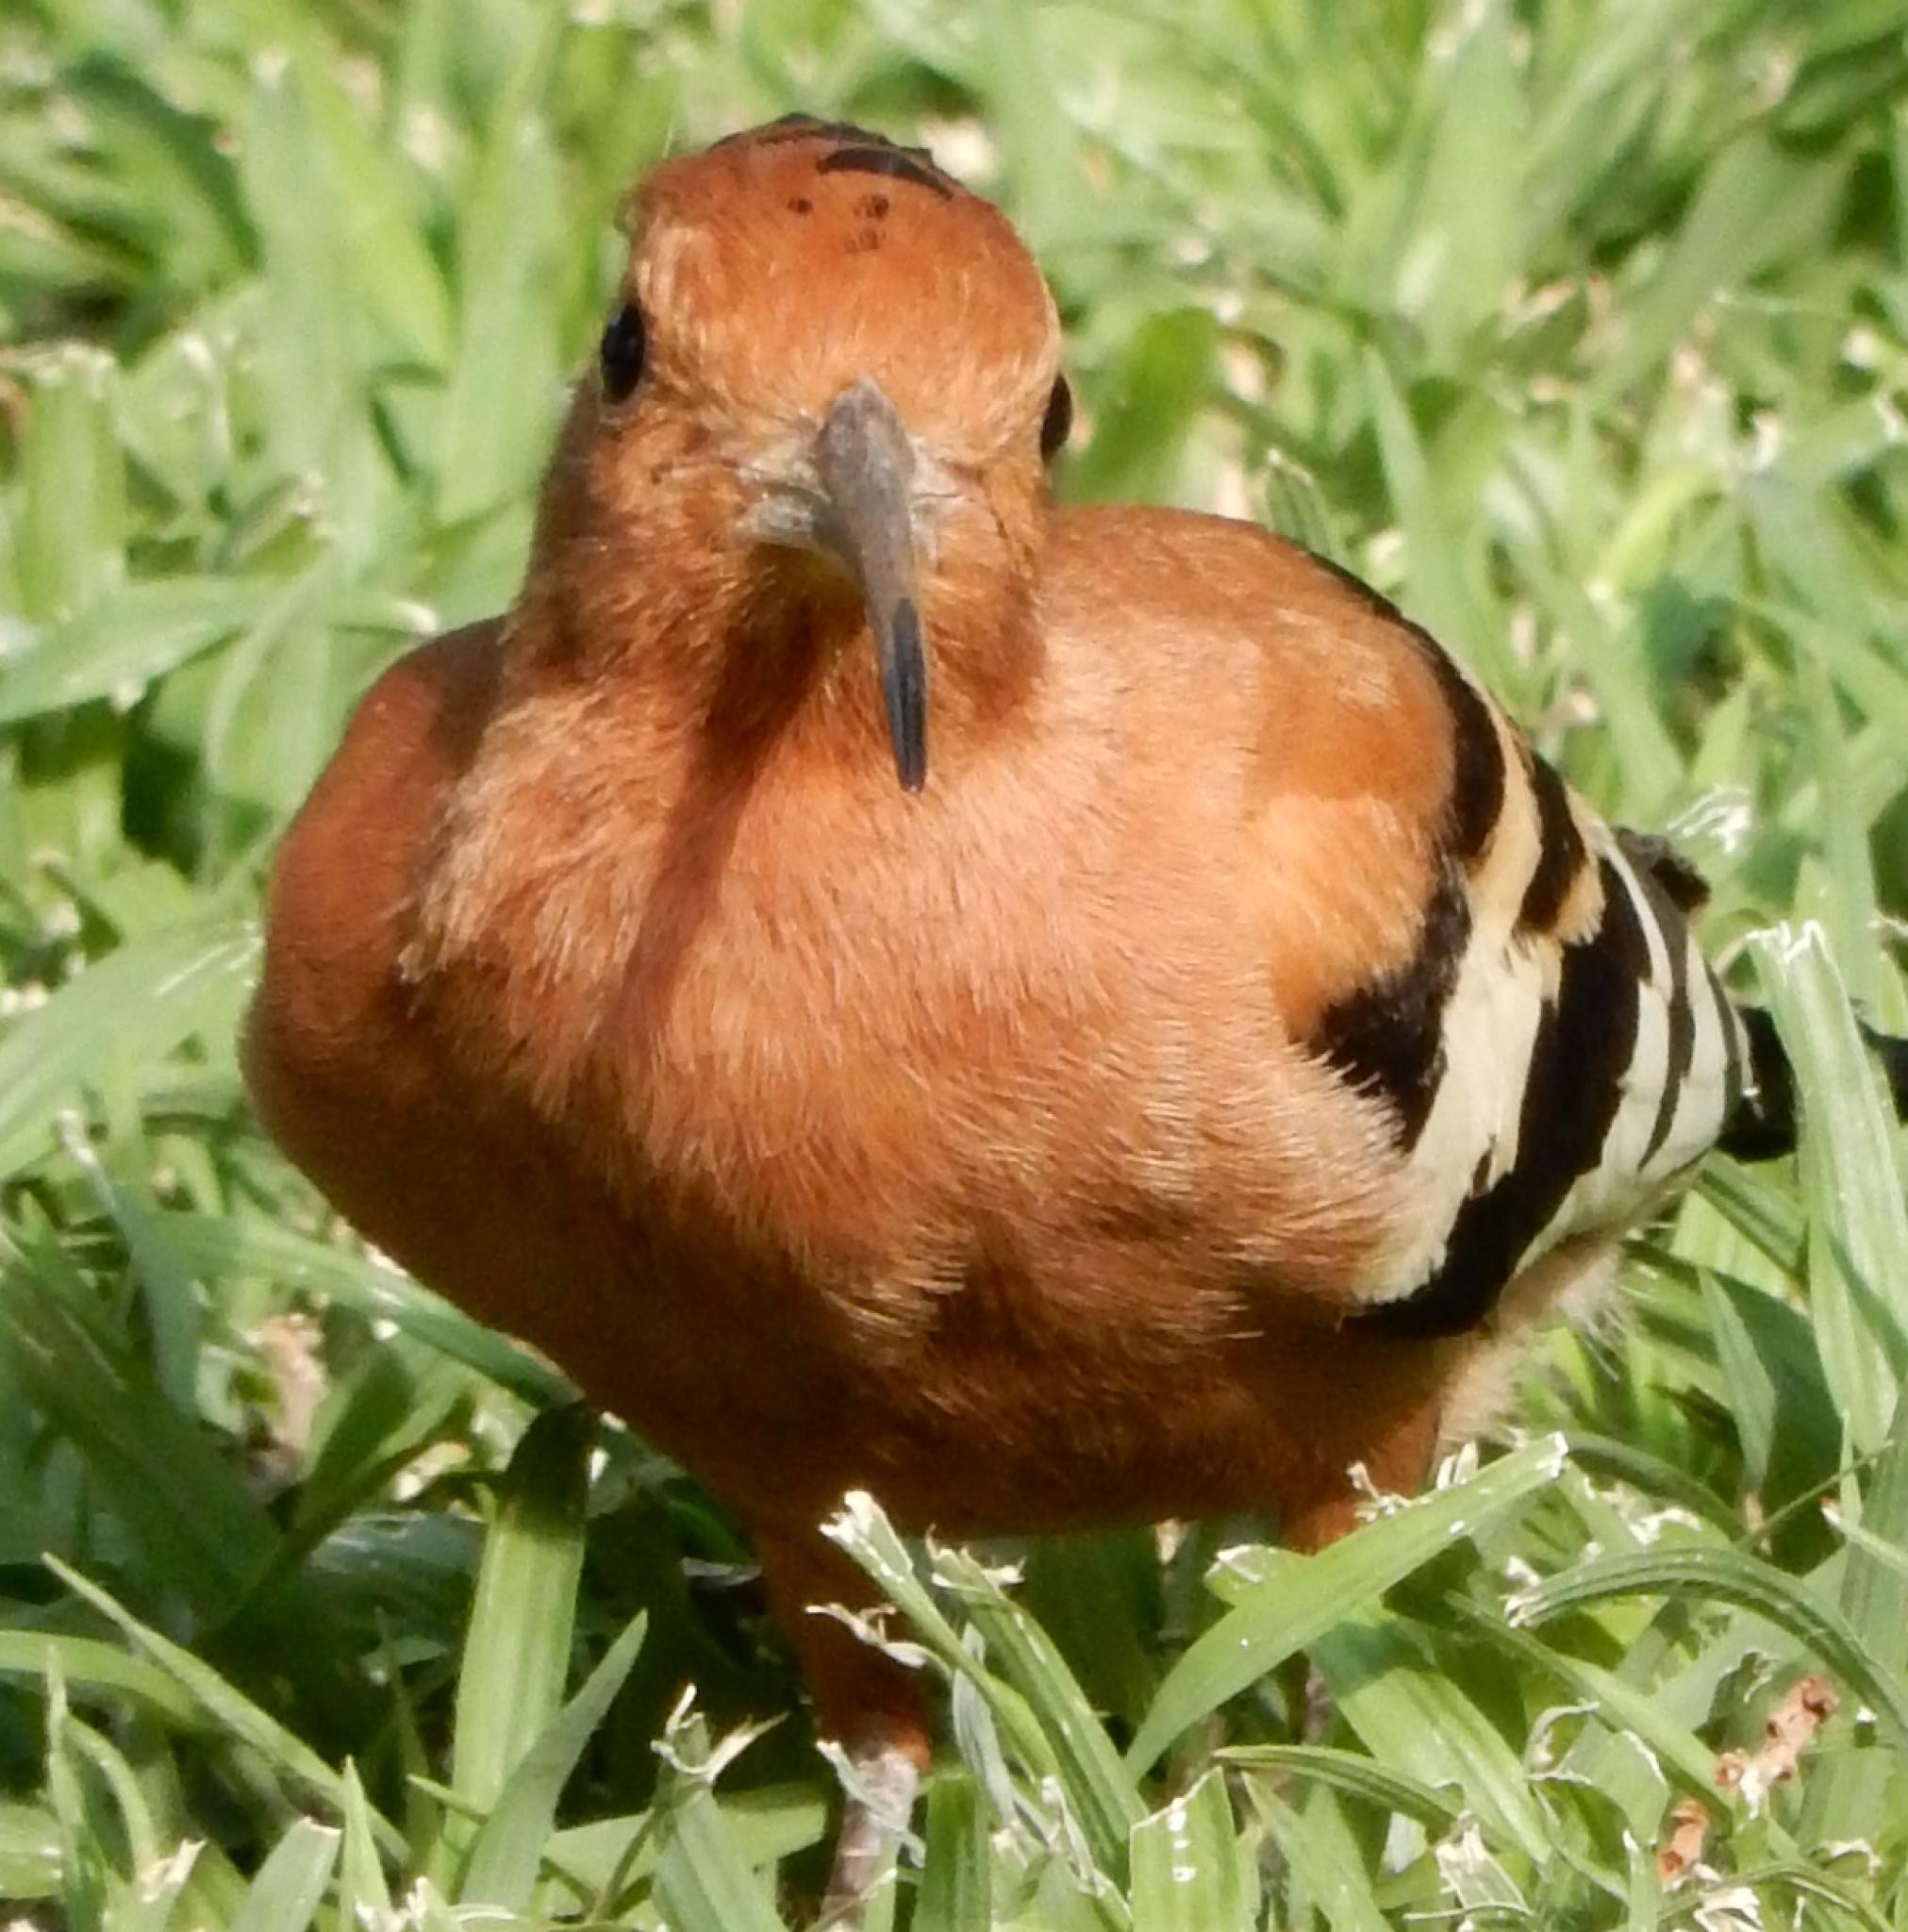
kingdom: Animalia
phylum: Chordata
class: Aves
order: Bucerotiformes
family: Upupidae
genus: Upupa
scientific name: Upupa africana
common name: African hoopoe
